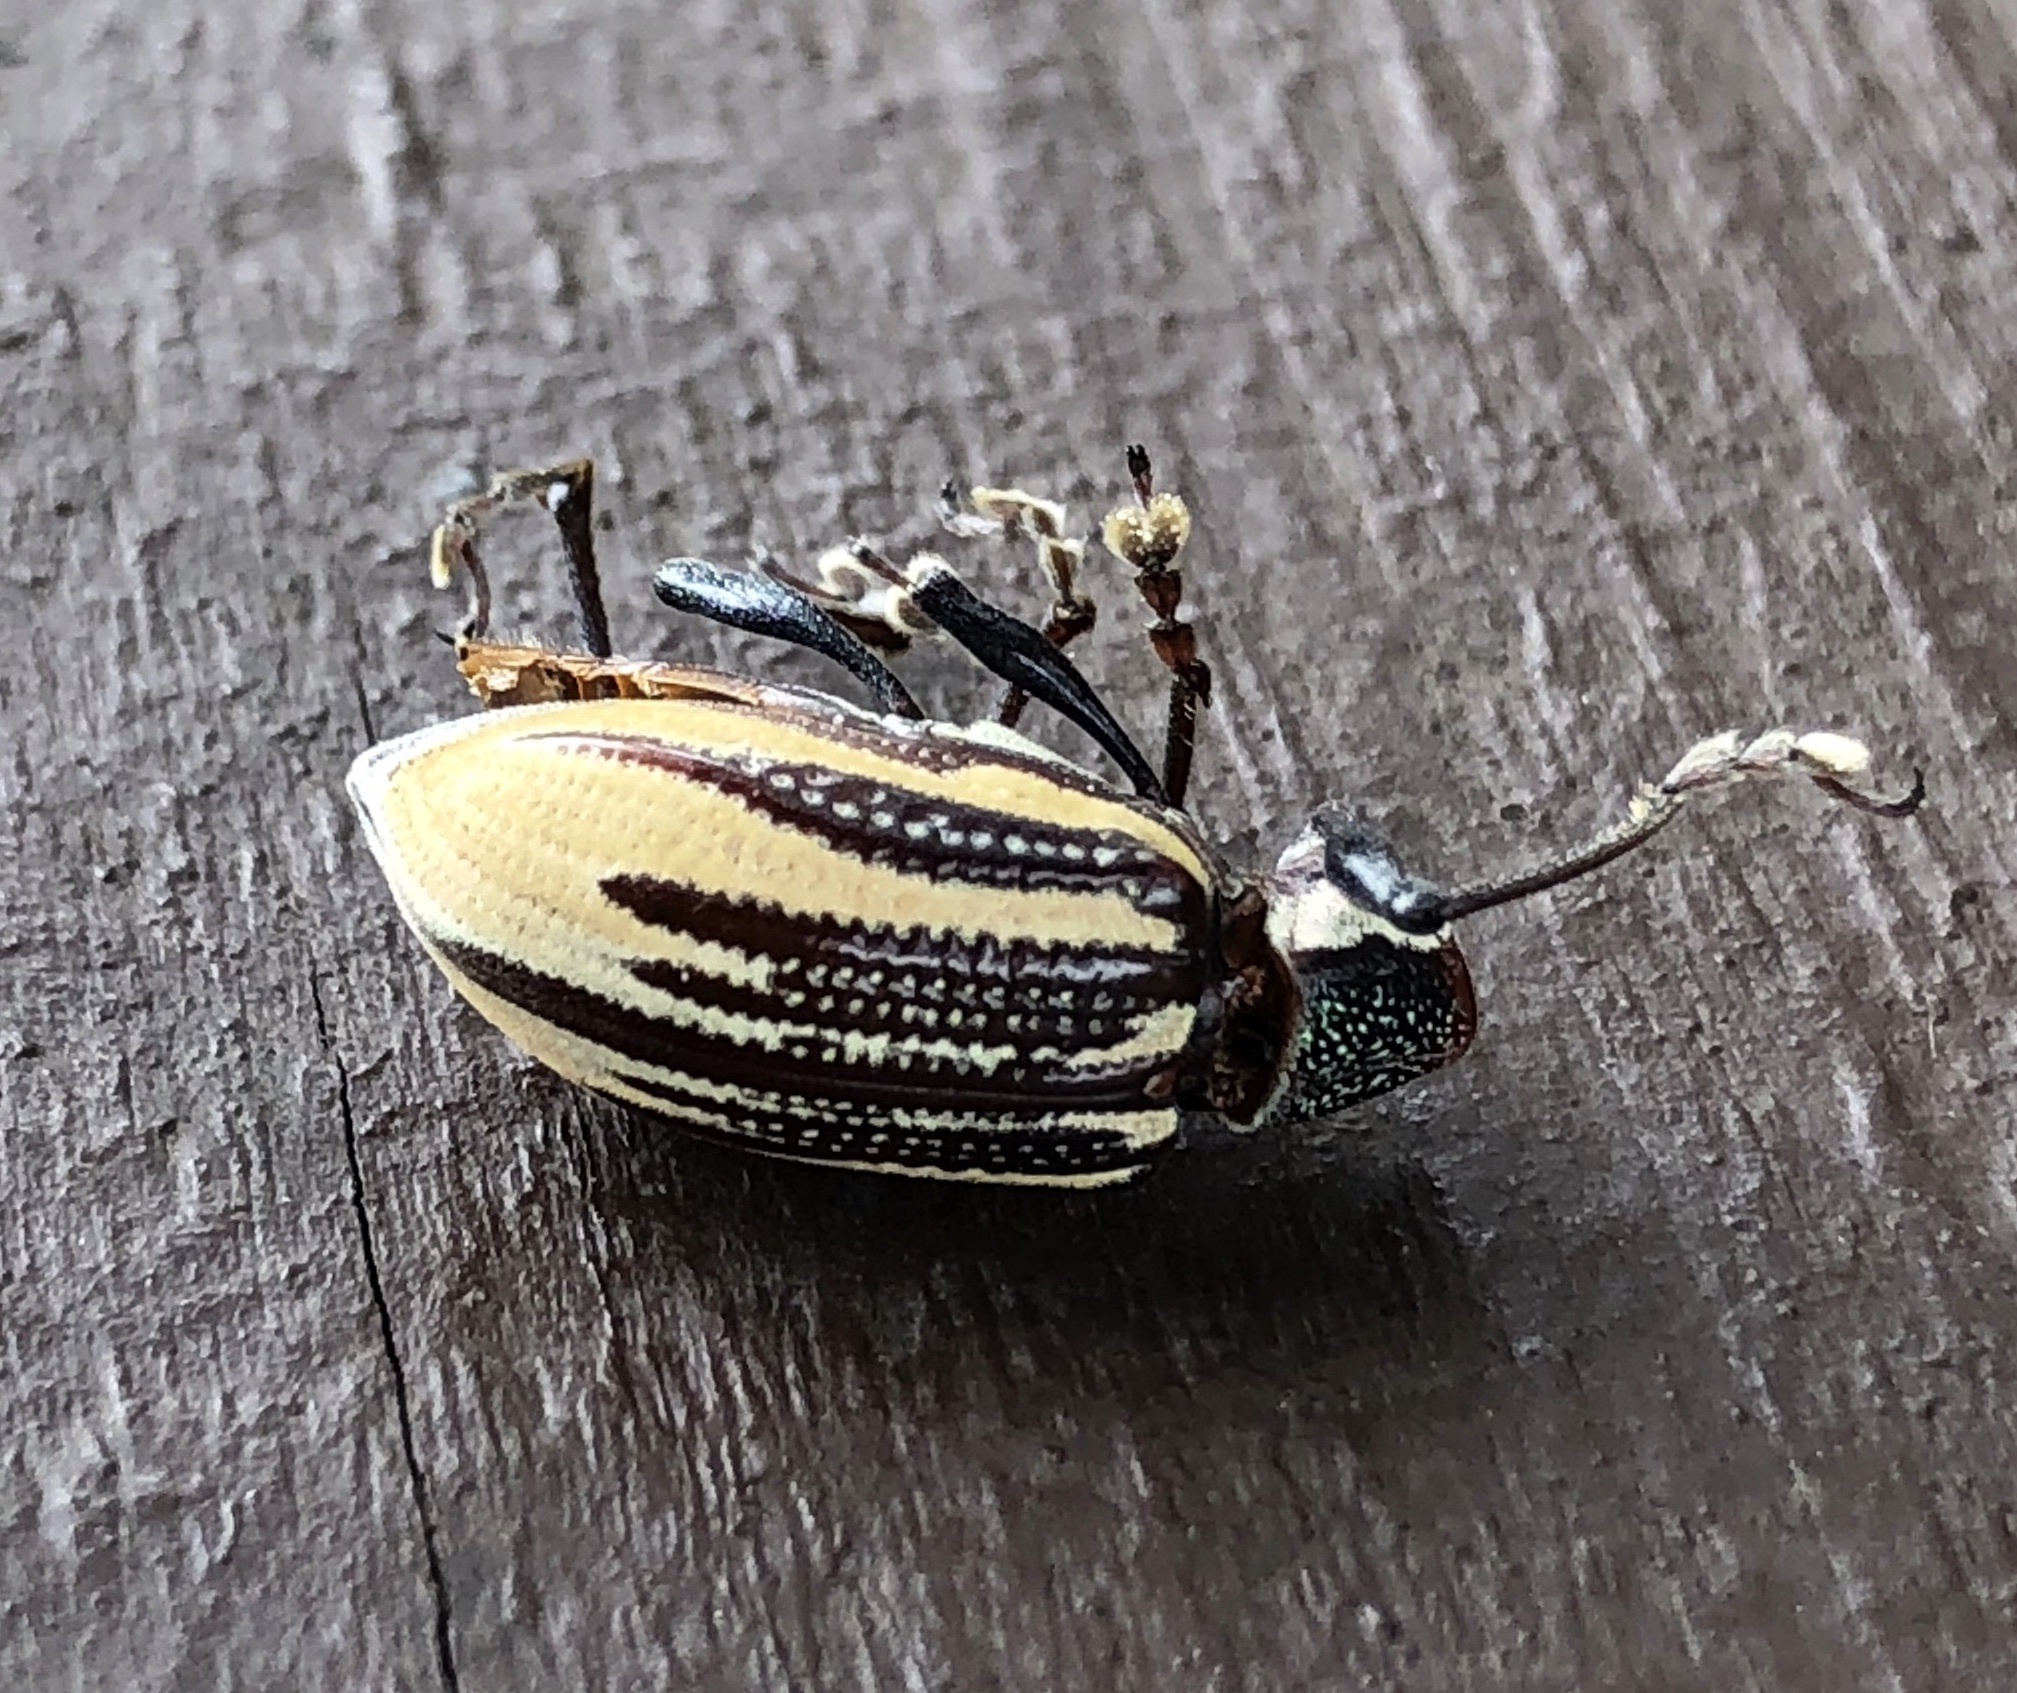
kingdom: Animalia
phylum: Arthropoda
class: Insecta
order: Coleoptera
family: Curculionidae
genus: Diaprepes
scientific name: Diaprepes abbreviatus
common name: Root weevil
